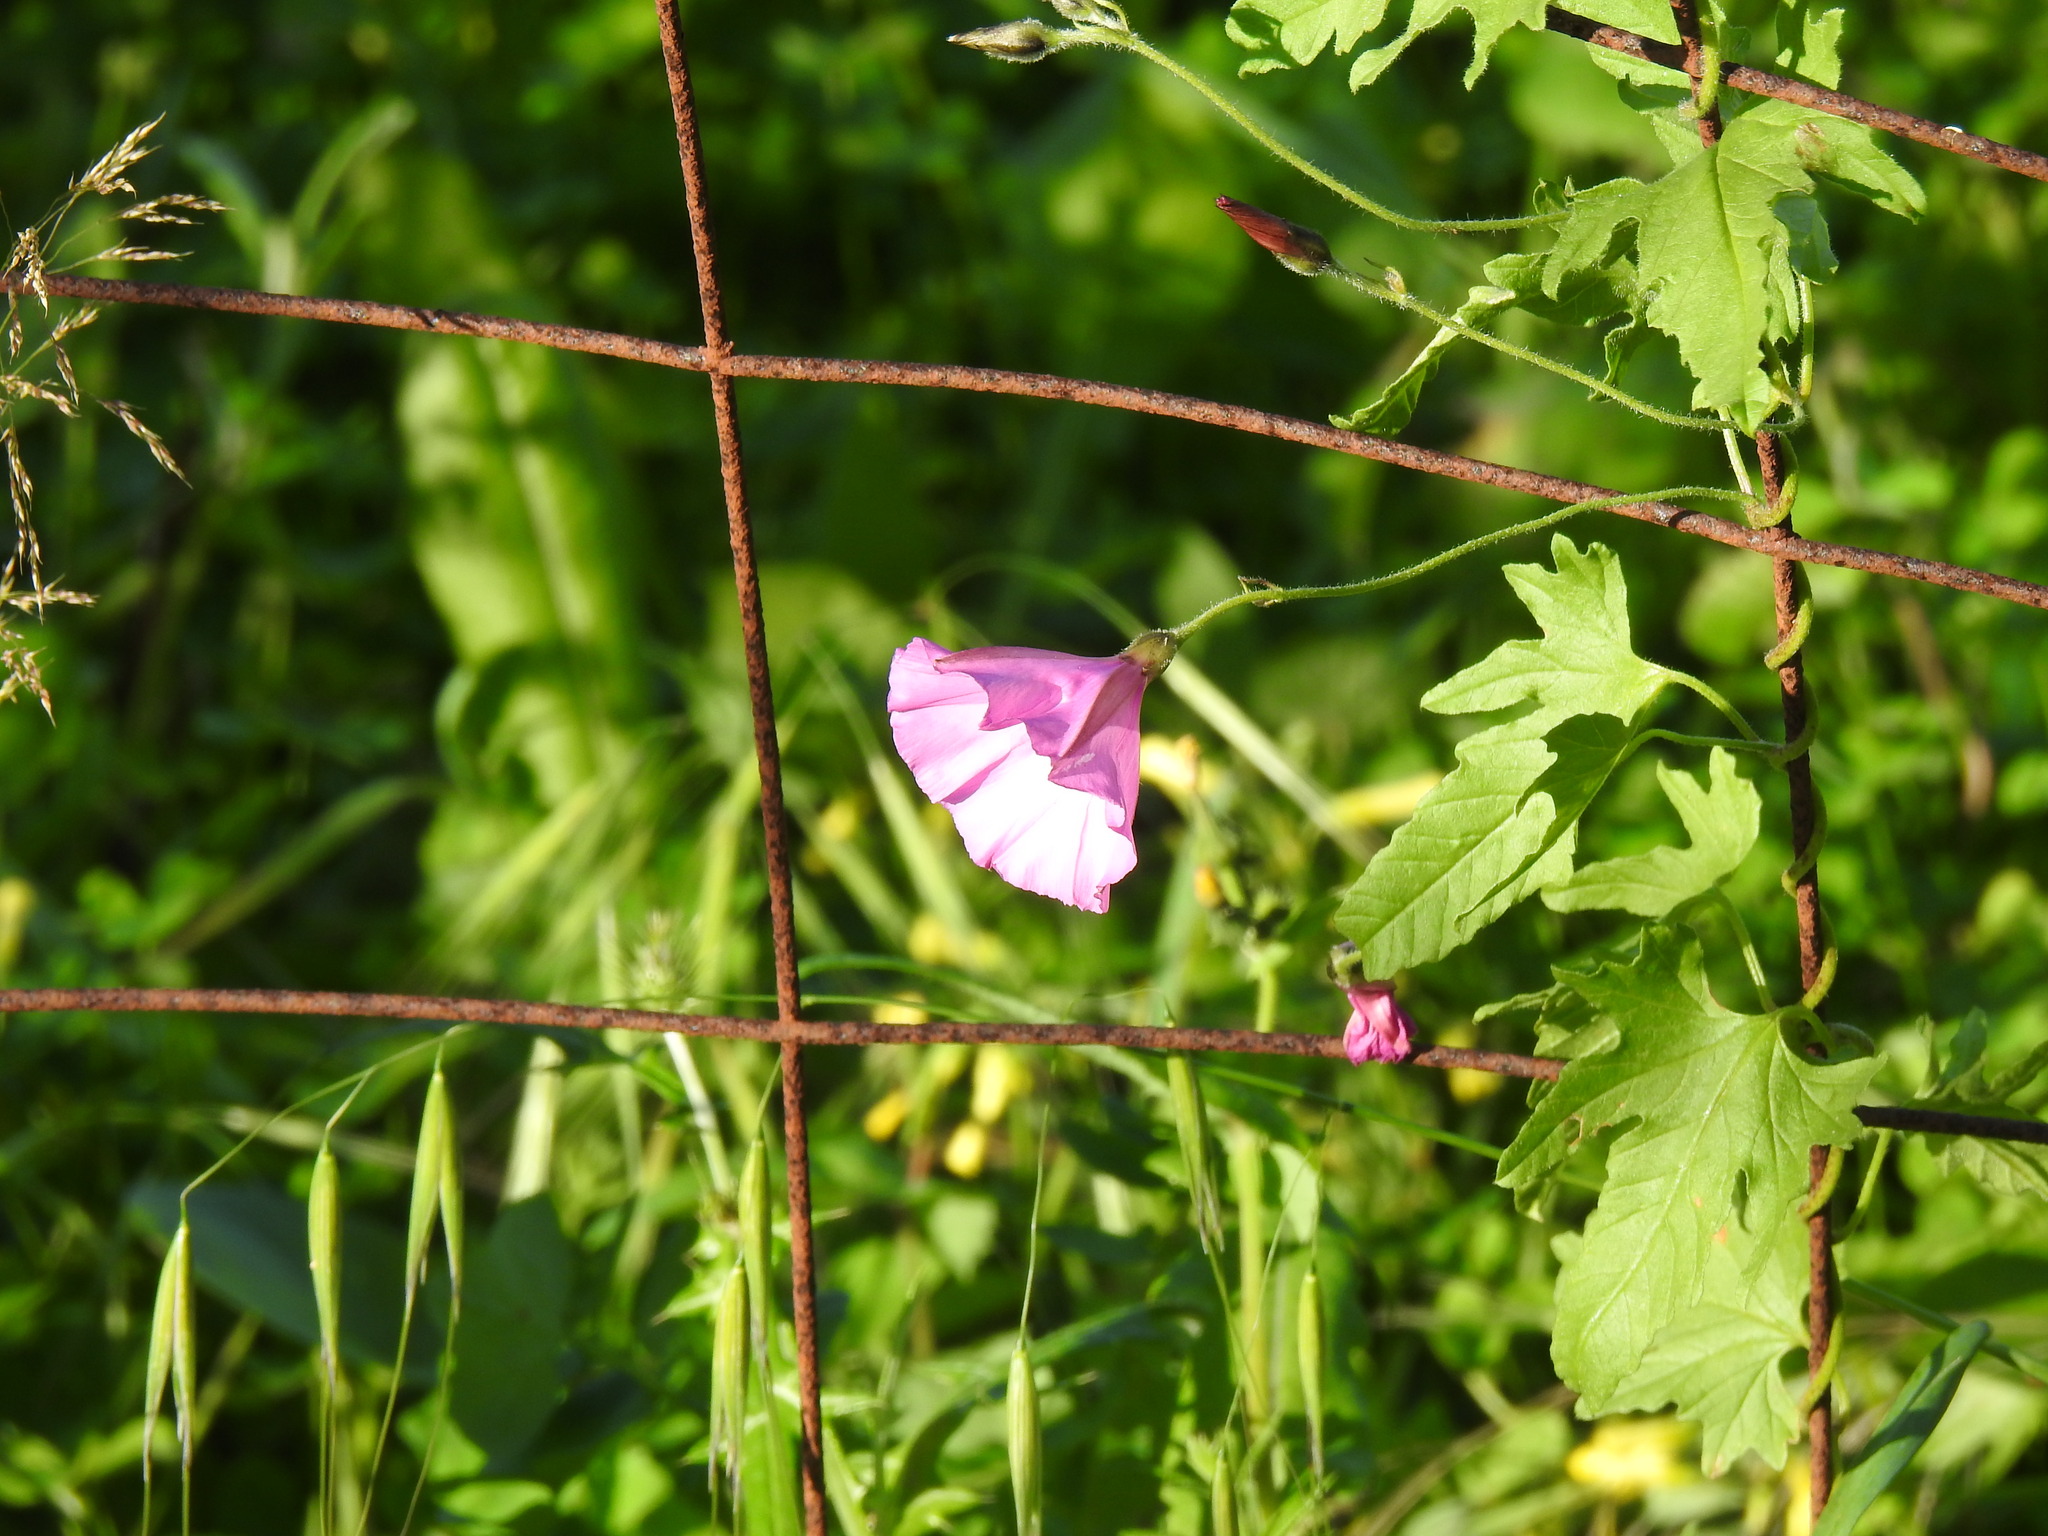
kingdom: Plantae
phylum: Tracheophyta
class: Magnoliopsida
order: Solanales
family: Convolvulaceae
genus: Convolvulus
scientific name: Convolvulus althaeoides
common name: Mallow bindweed
